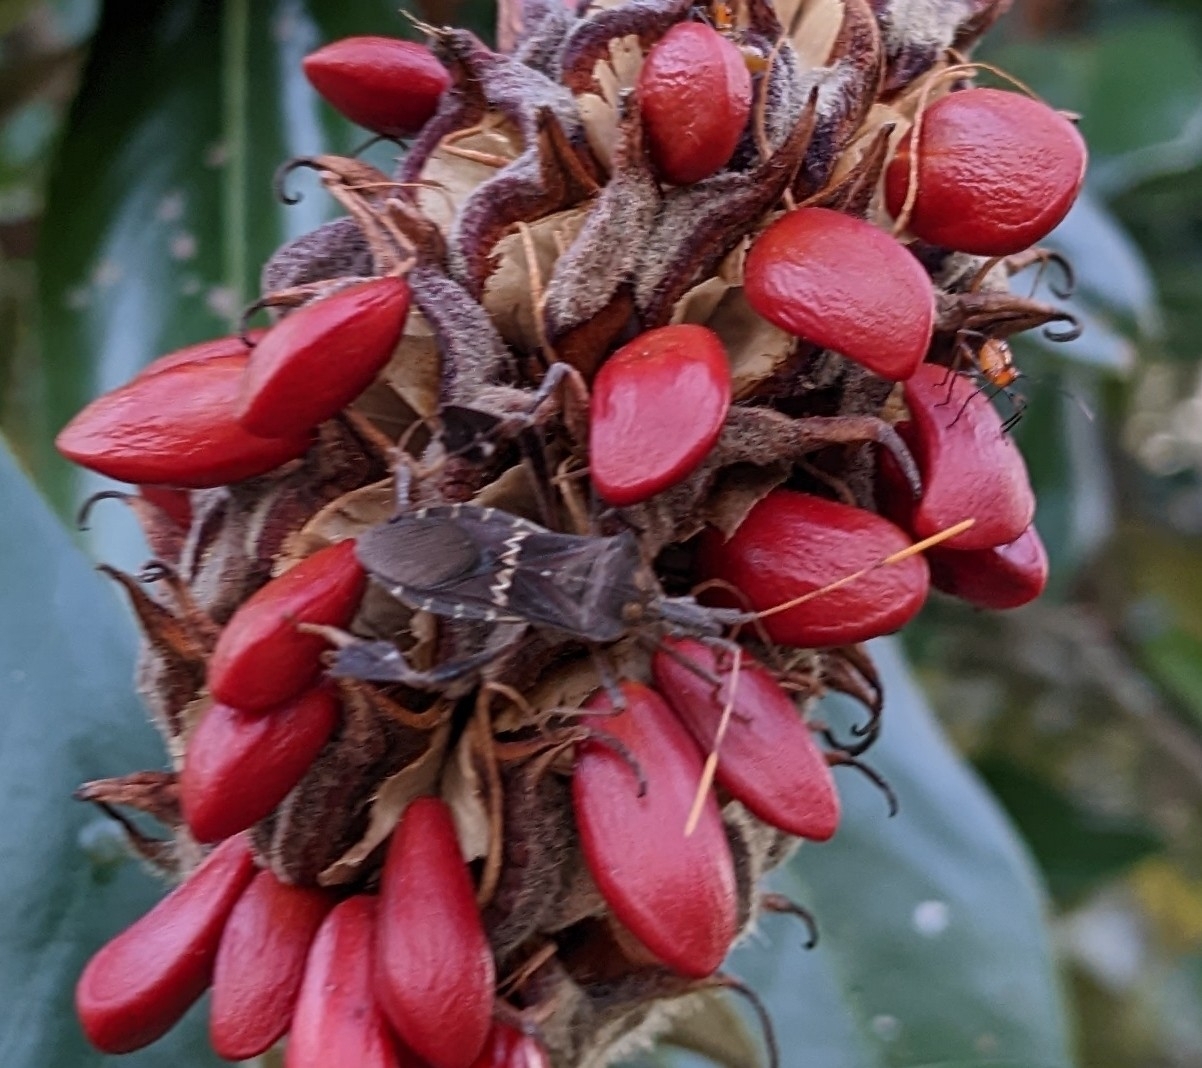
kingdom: Animalia
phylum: Arthropoda
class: Insecta
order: Hemiptera
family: Coreidae
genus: Leptoglossus
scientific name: Leptoglossus zonatus
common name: Large-legged bug
